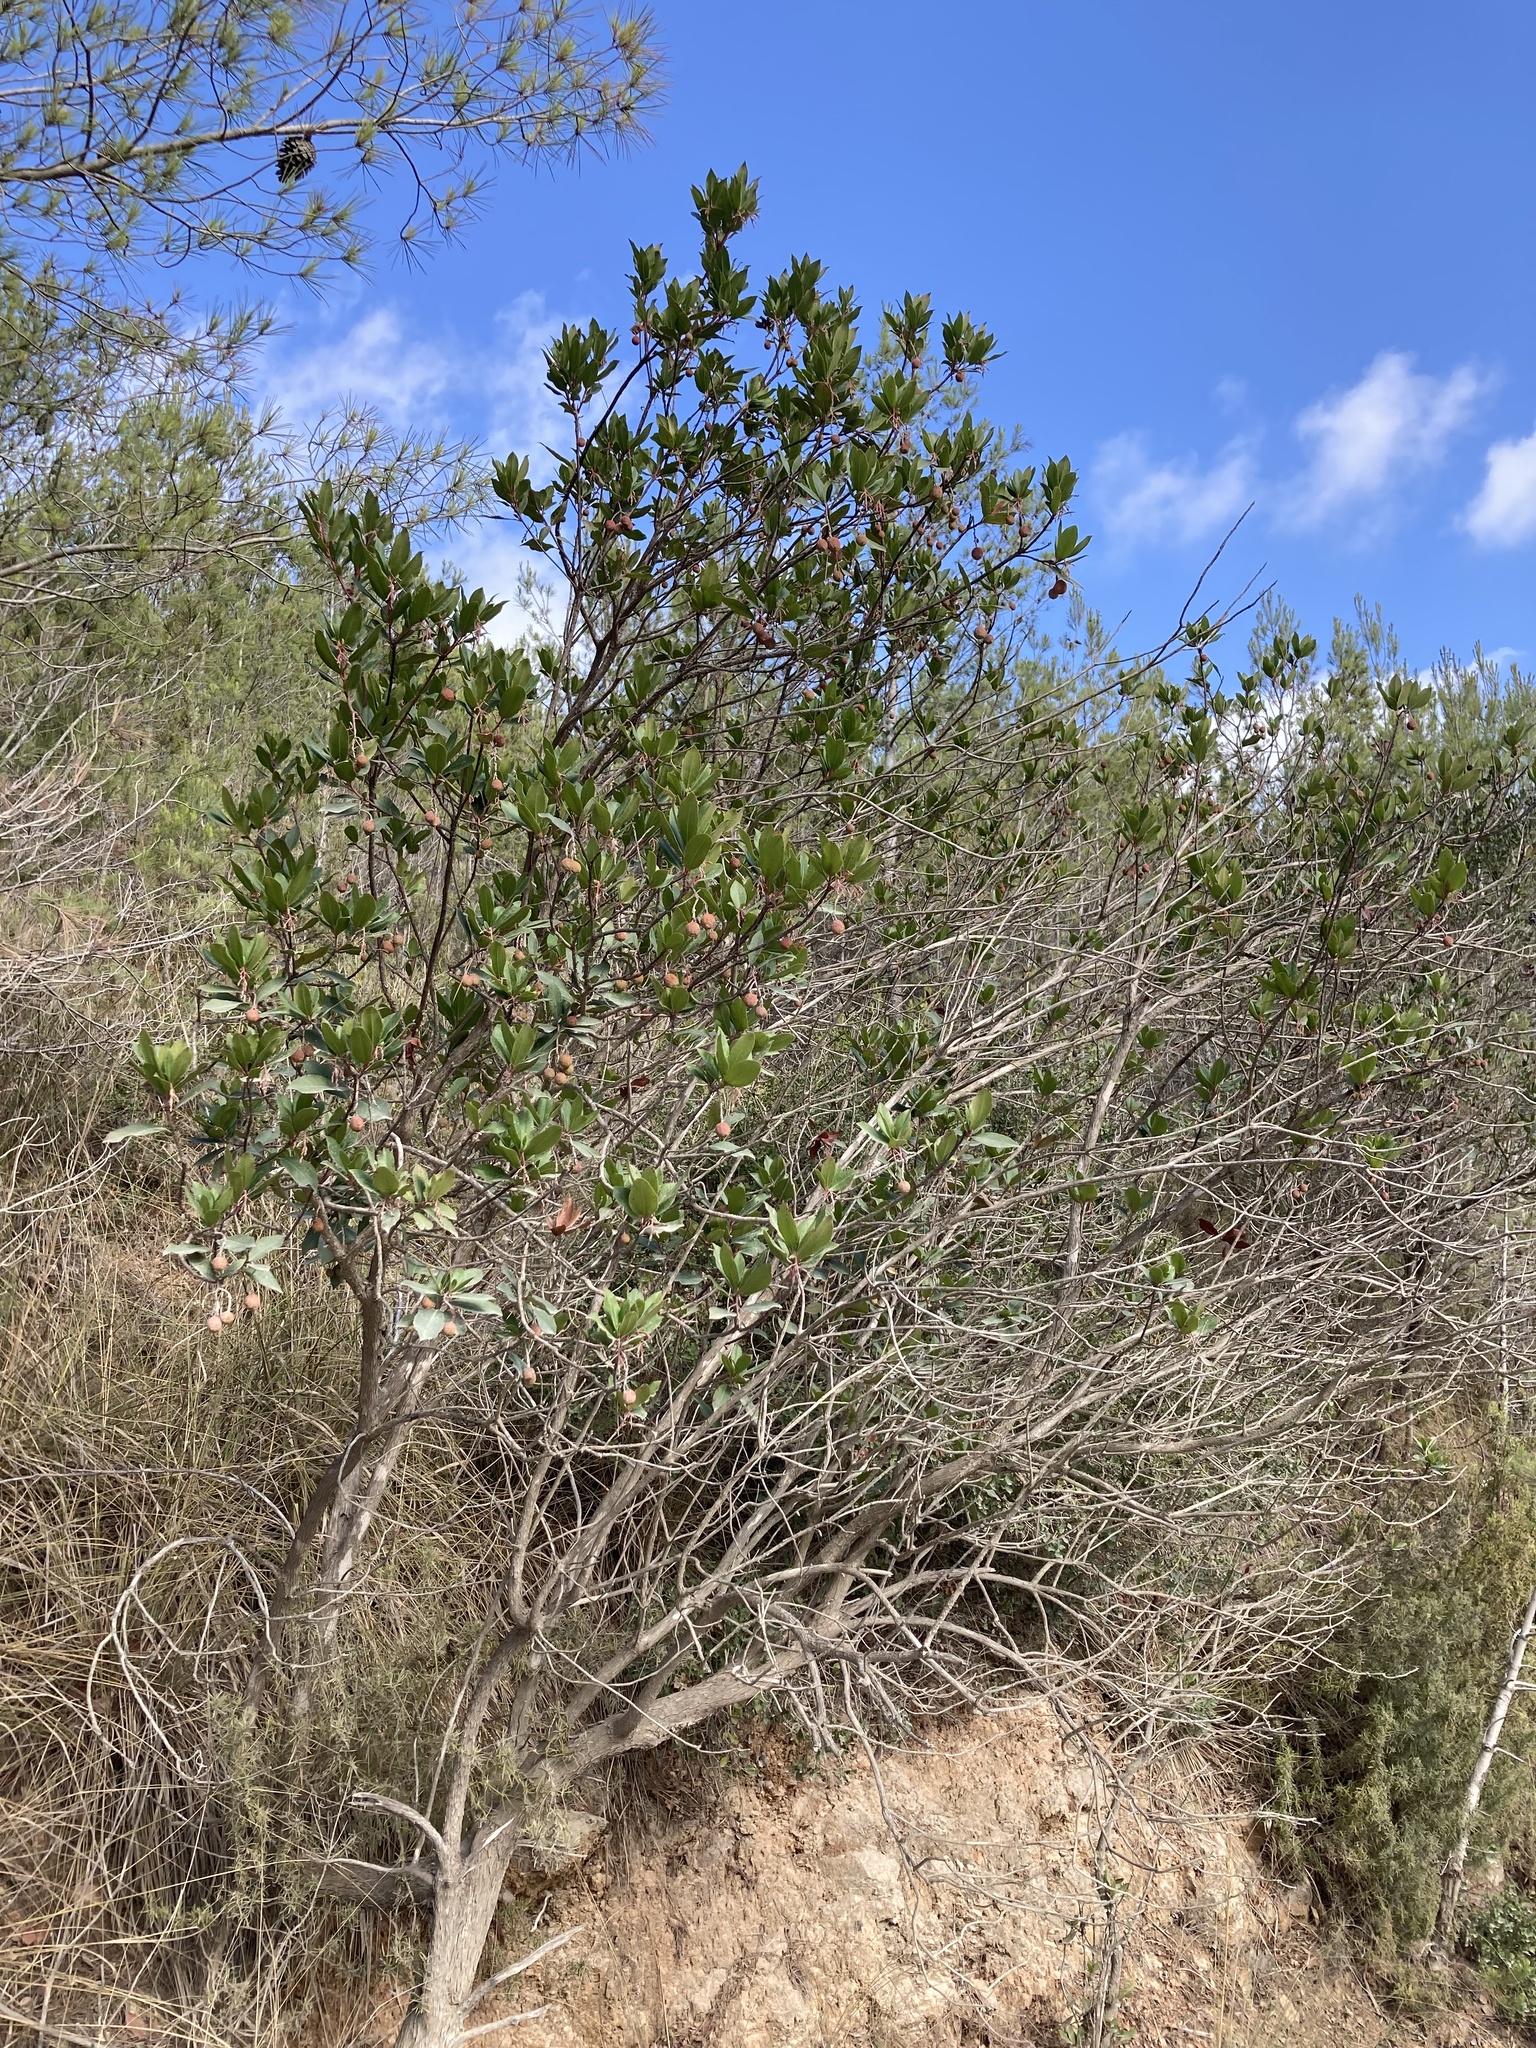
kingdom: Plantae
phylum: Tracheophyta
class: Magnoliopsida
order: Ericales
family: Ericaceae
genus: Arbutus
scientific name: Arbutus unedo
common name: Strawberry-tree
